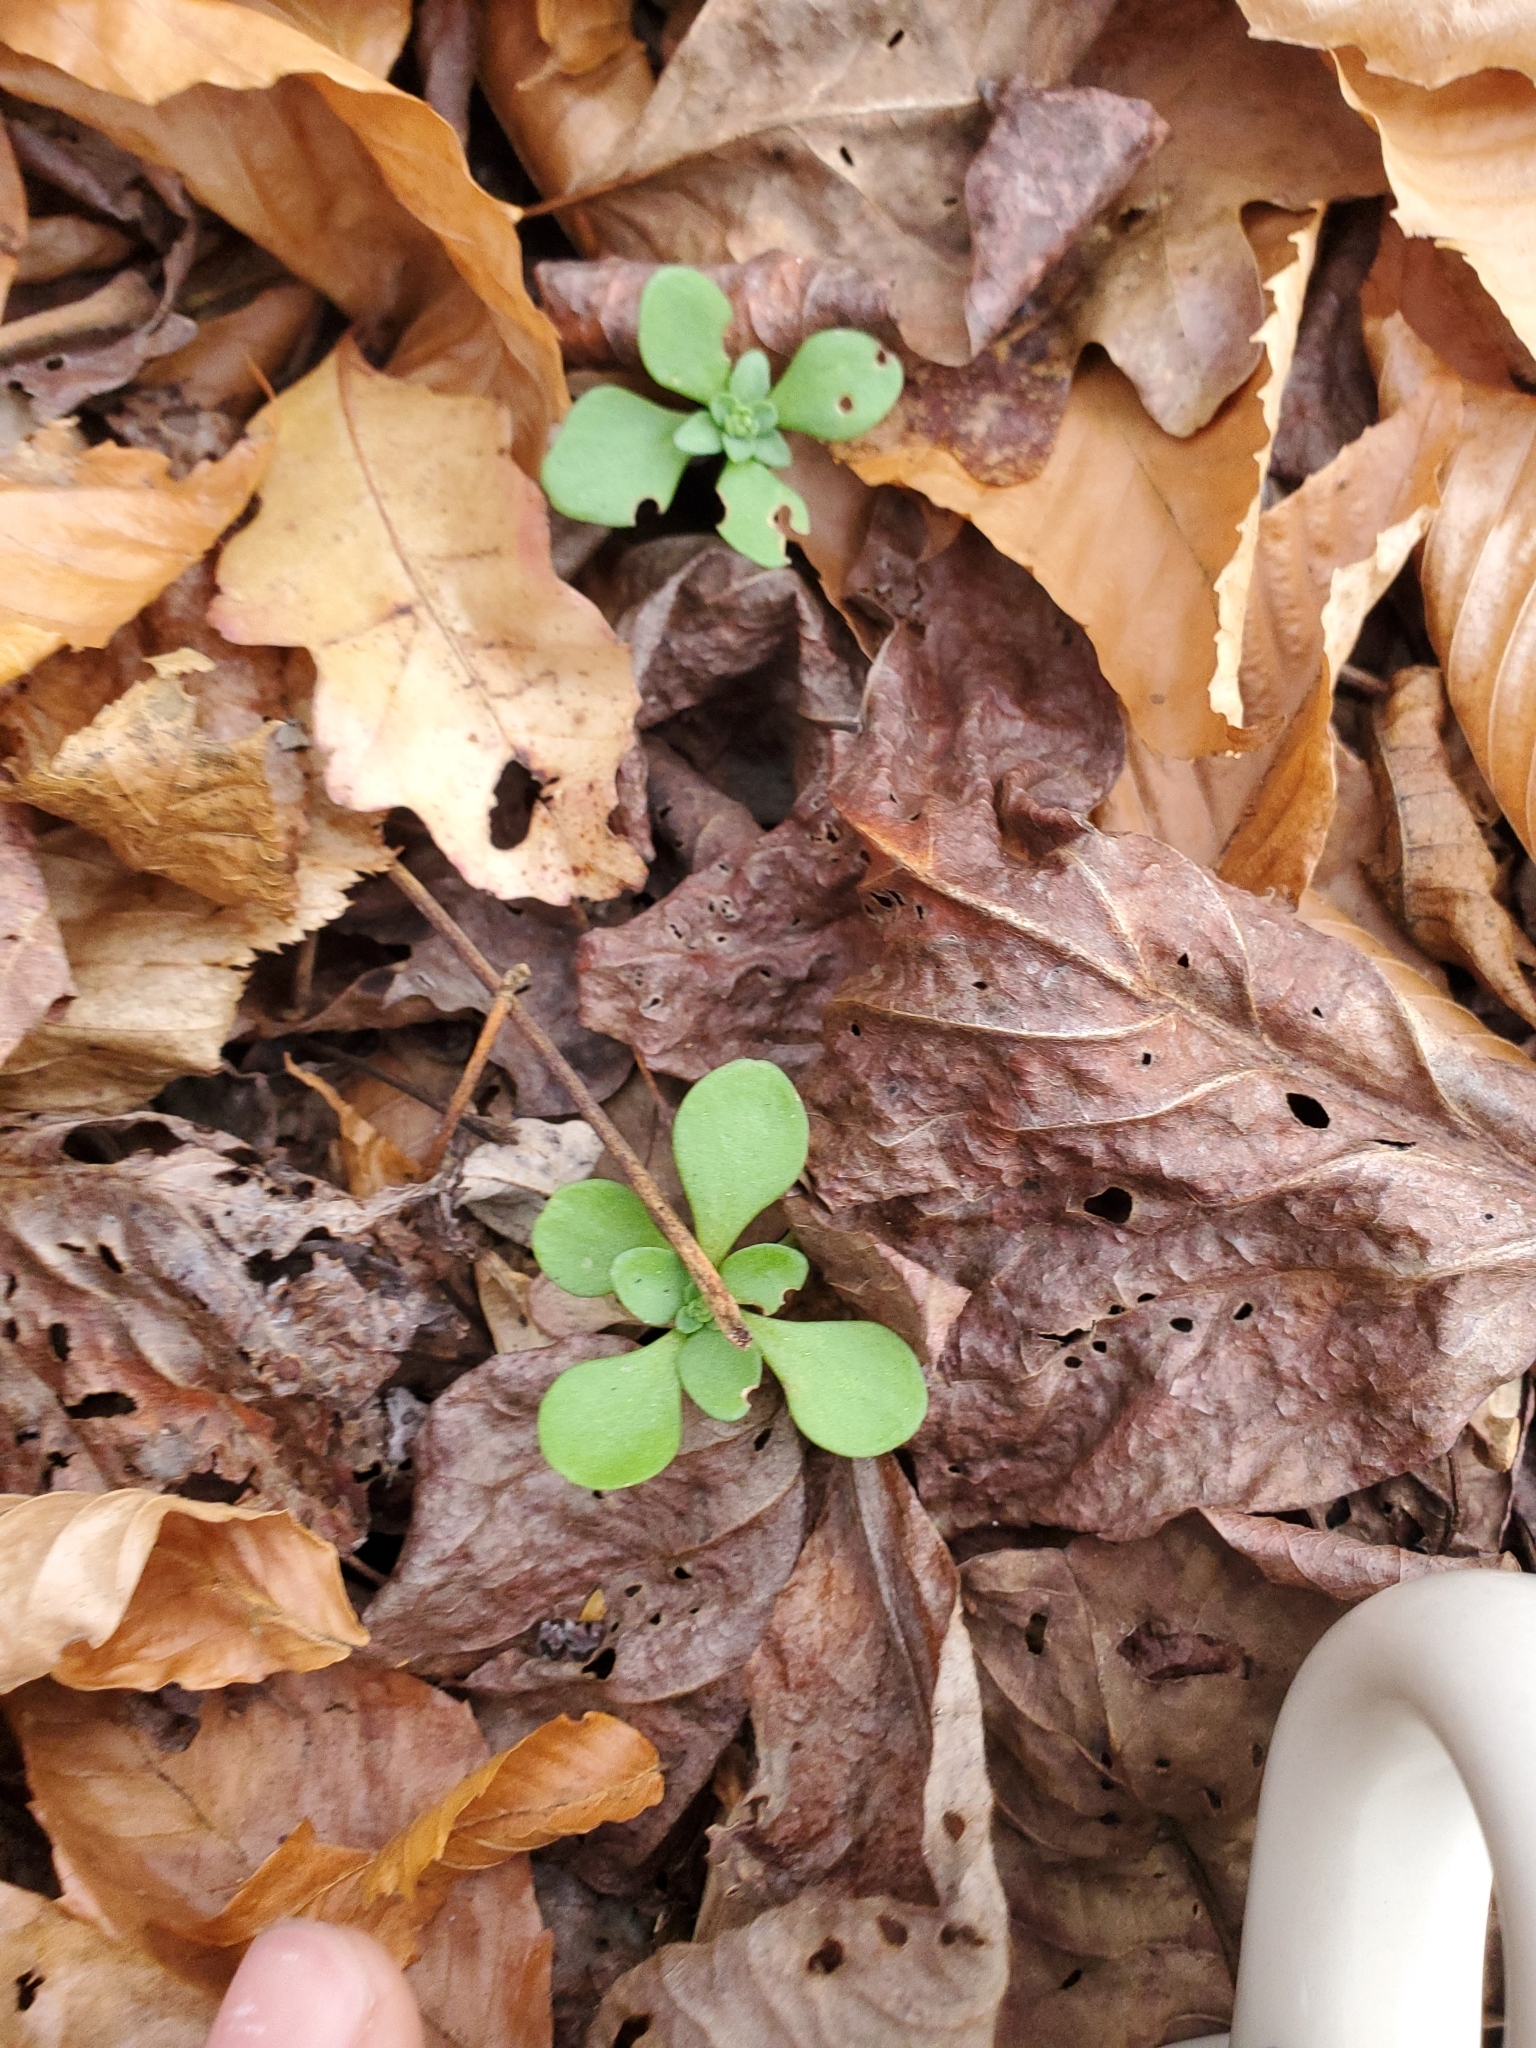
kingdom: Plantae
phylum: Tracheophyta
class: Magnoliopsida
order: Saxifragales
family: Crassulaceae
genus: Sedum
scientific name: Sedum ternatum
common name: Wild stonecrop
